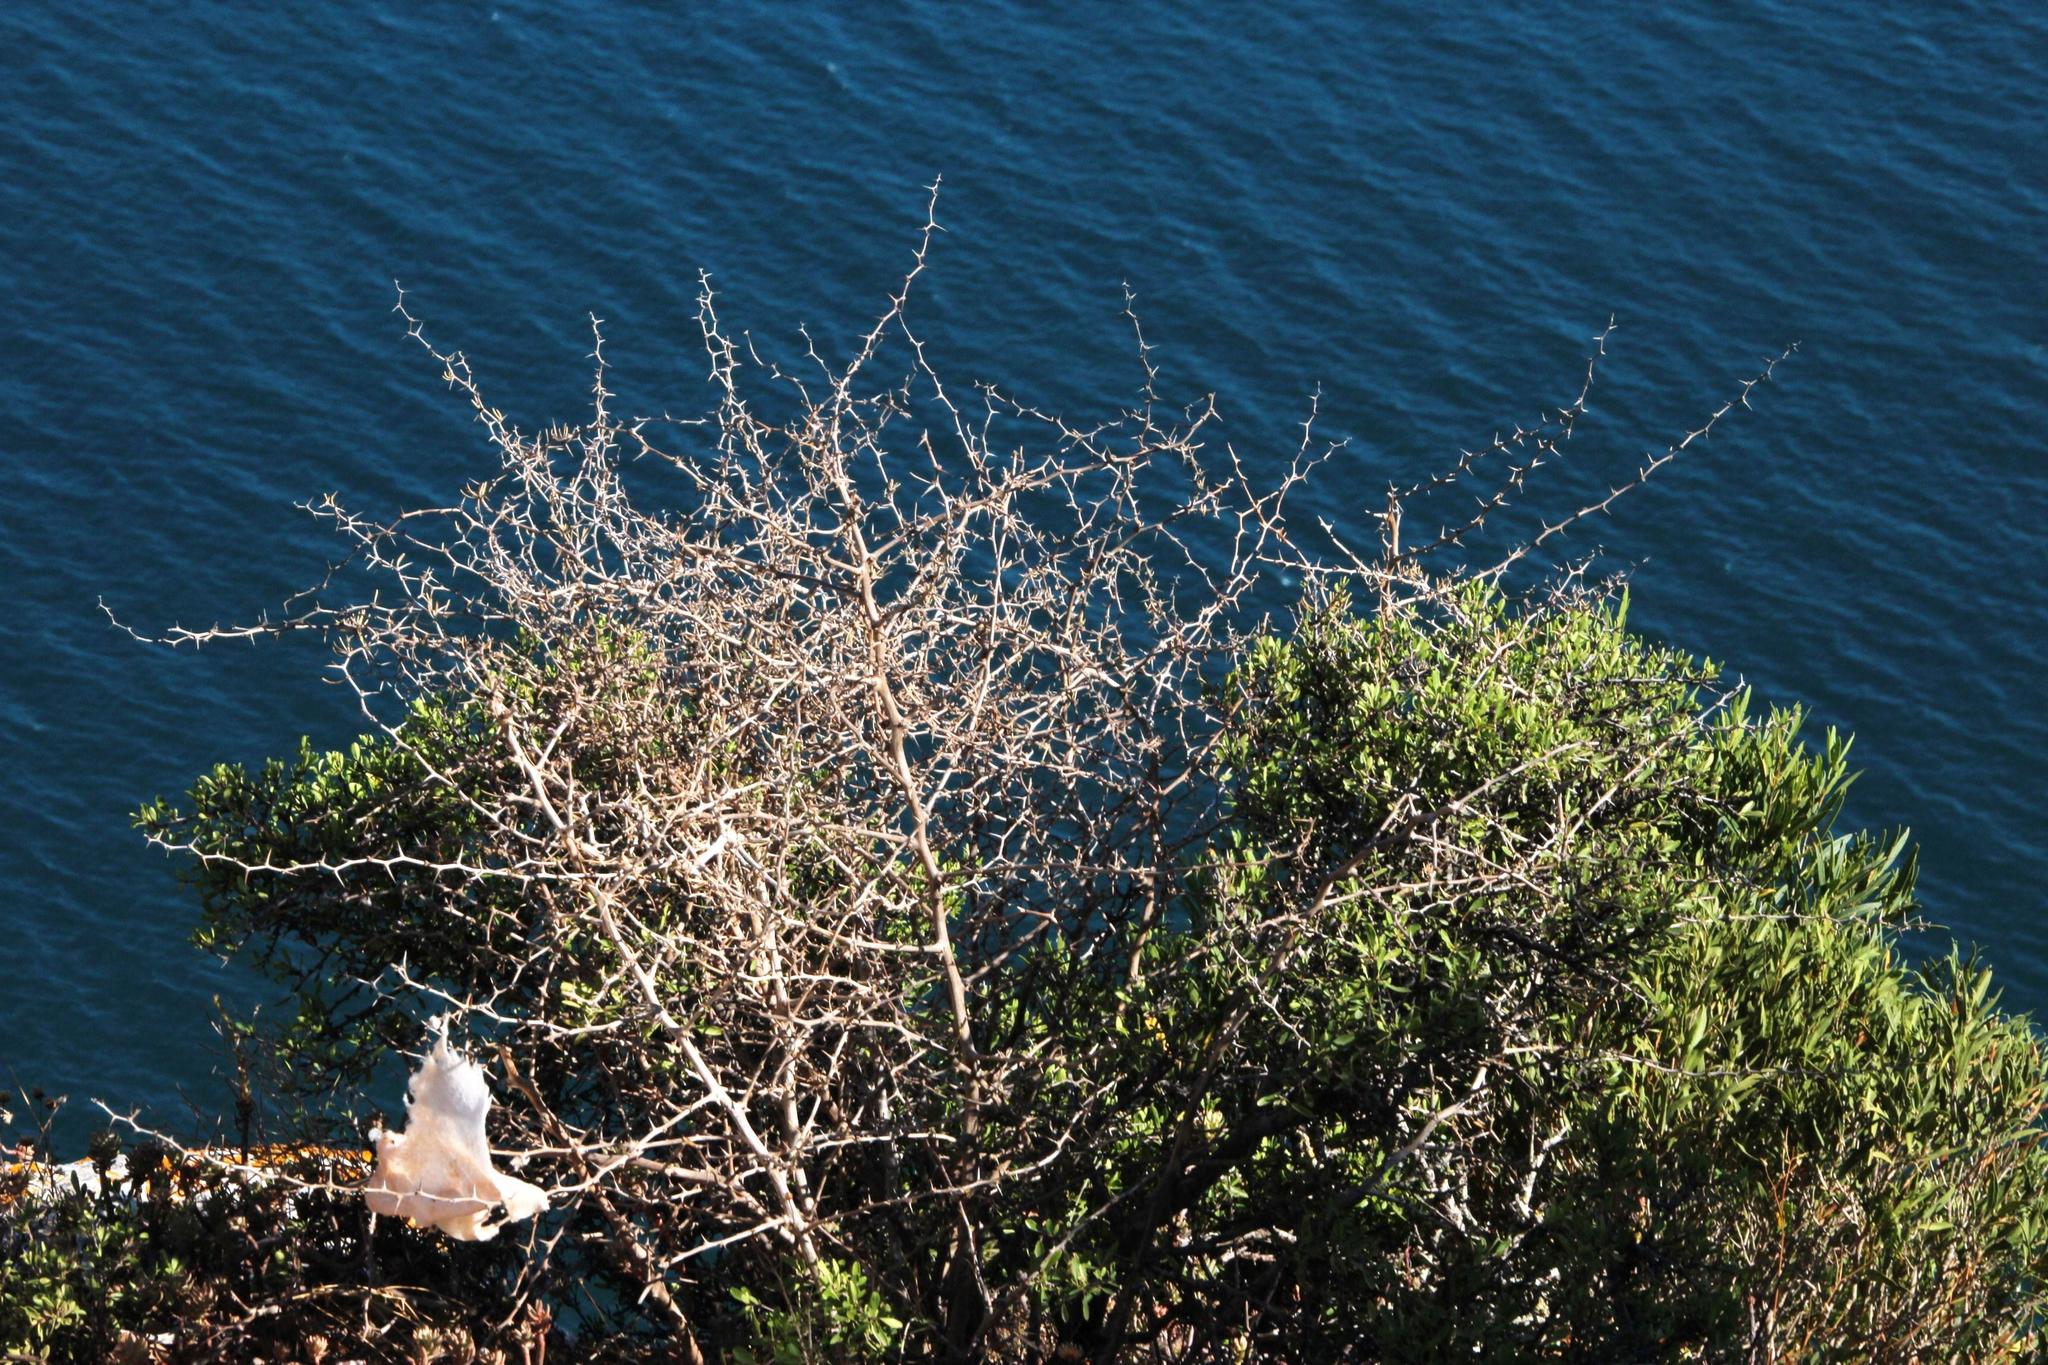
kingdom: Plantae
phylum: Tracheophyta
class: Liliopsida
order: Asparagales
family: Asparagaceae
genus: Asparagus
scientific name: Asparagus albus
